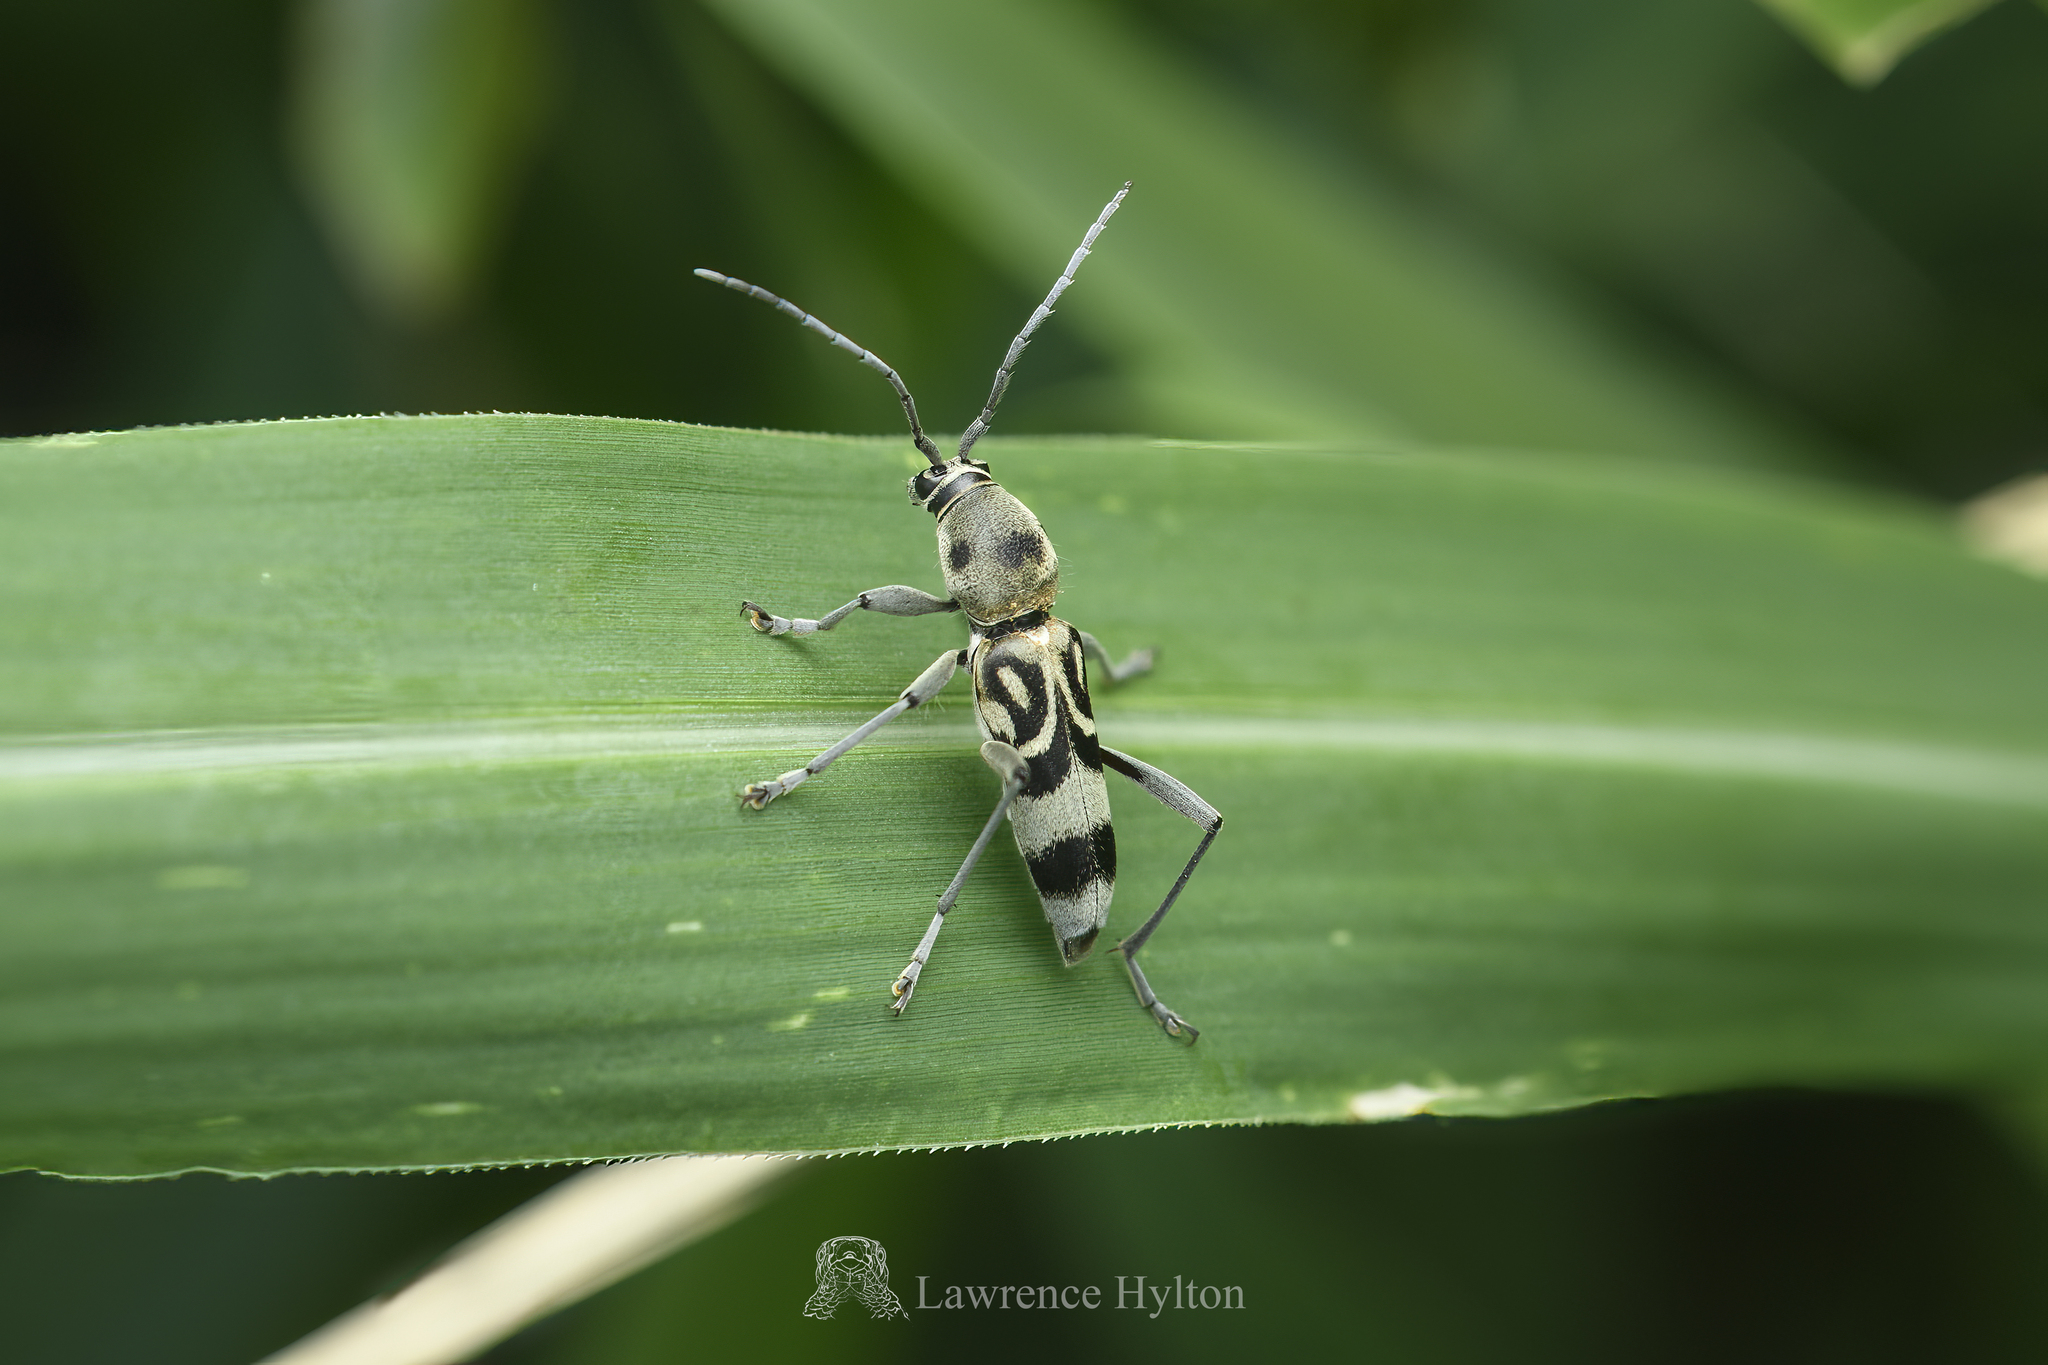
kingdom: Animalia
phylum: Arthropoda
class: Insecta
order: Coleoptera
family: Cerambycidae
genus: Chlorophorus
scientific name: Chlorophorus macaumensis
